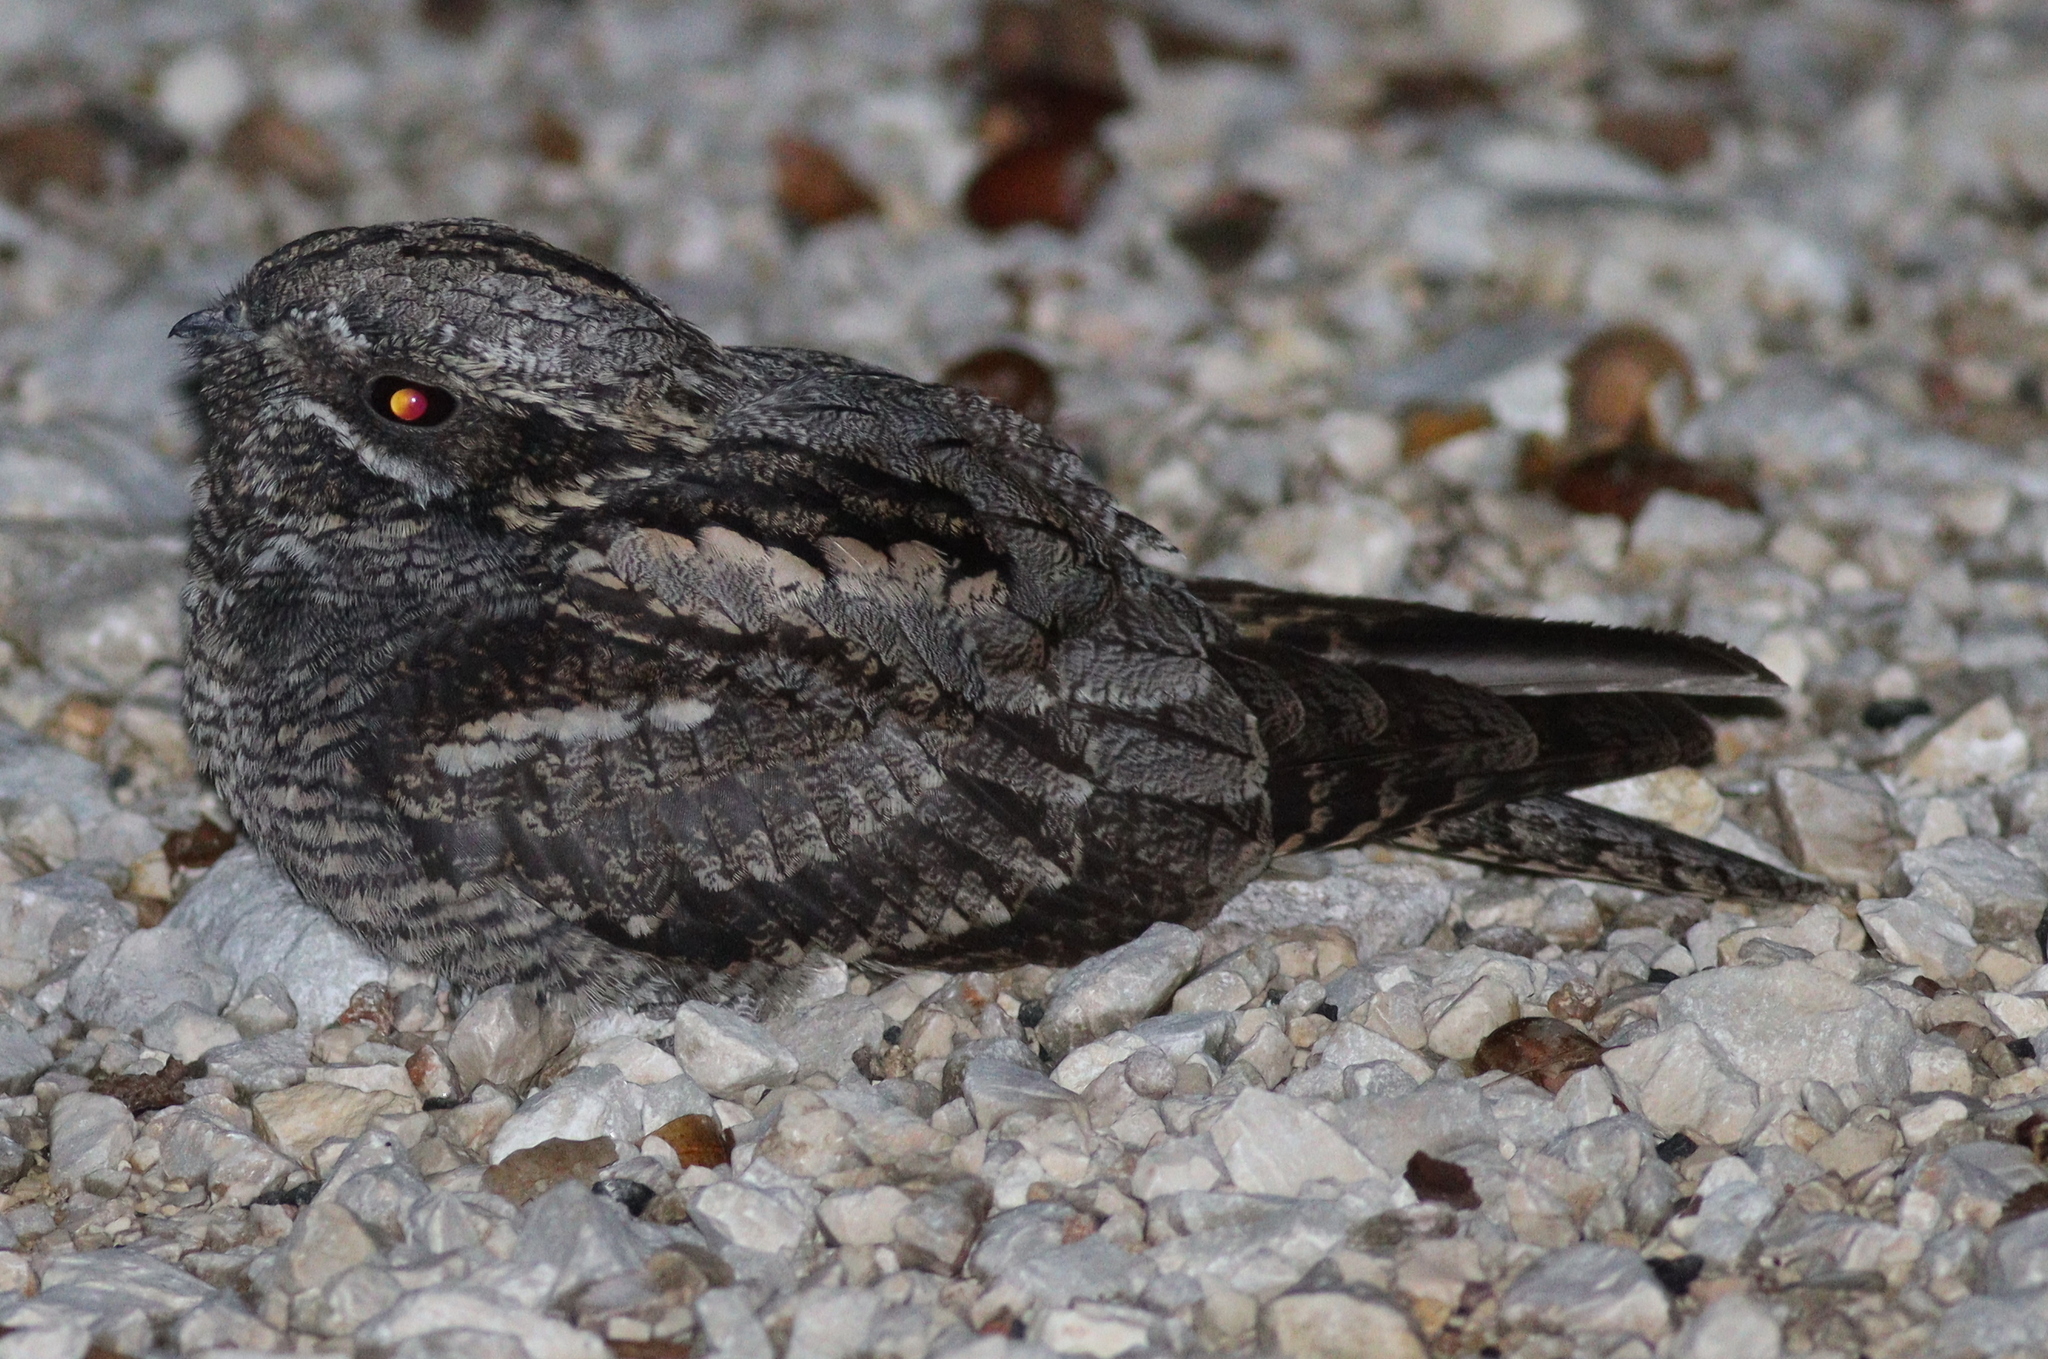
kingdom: Animalia
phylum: Chordata
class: Aves
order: Caprimulgiformes
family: Caprimulgidae
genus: Caprimulgus
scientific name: Caprimulgus europaeus
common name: European nightjar
